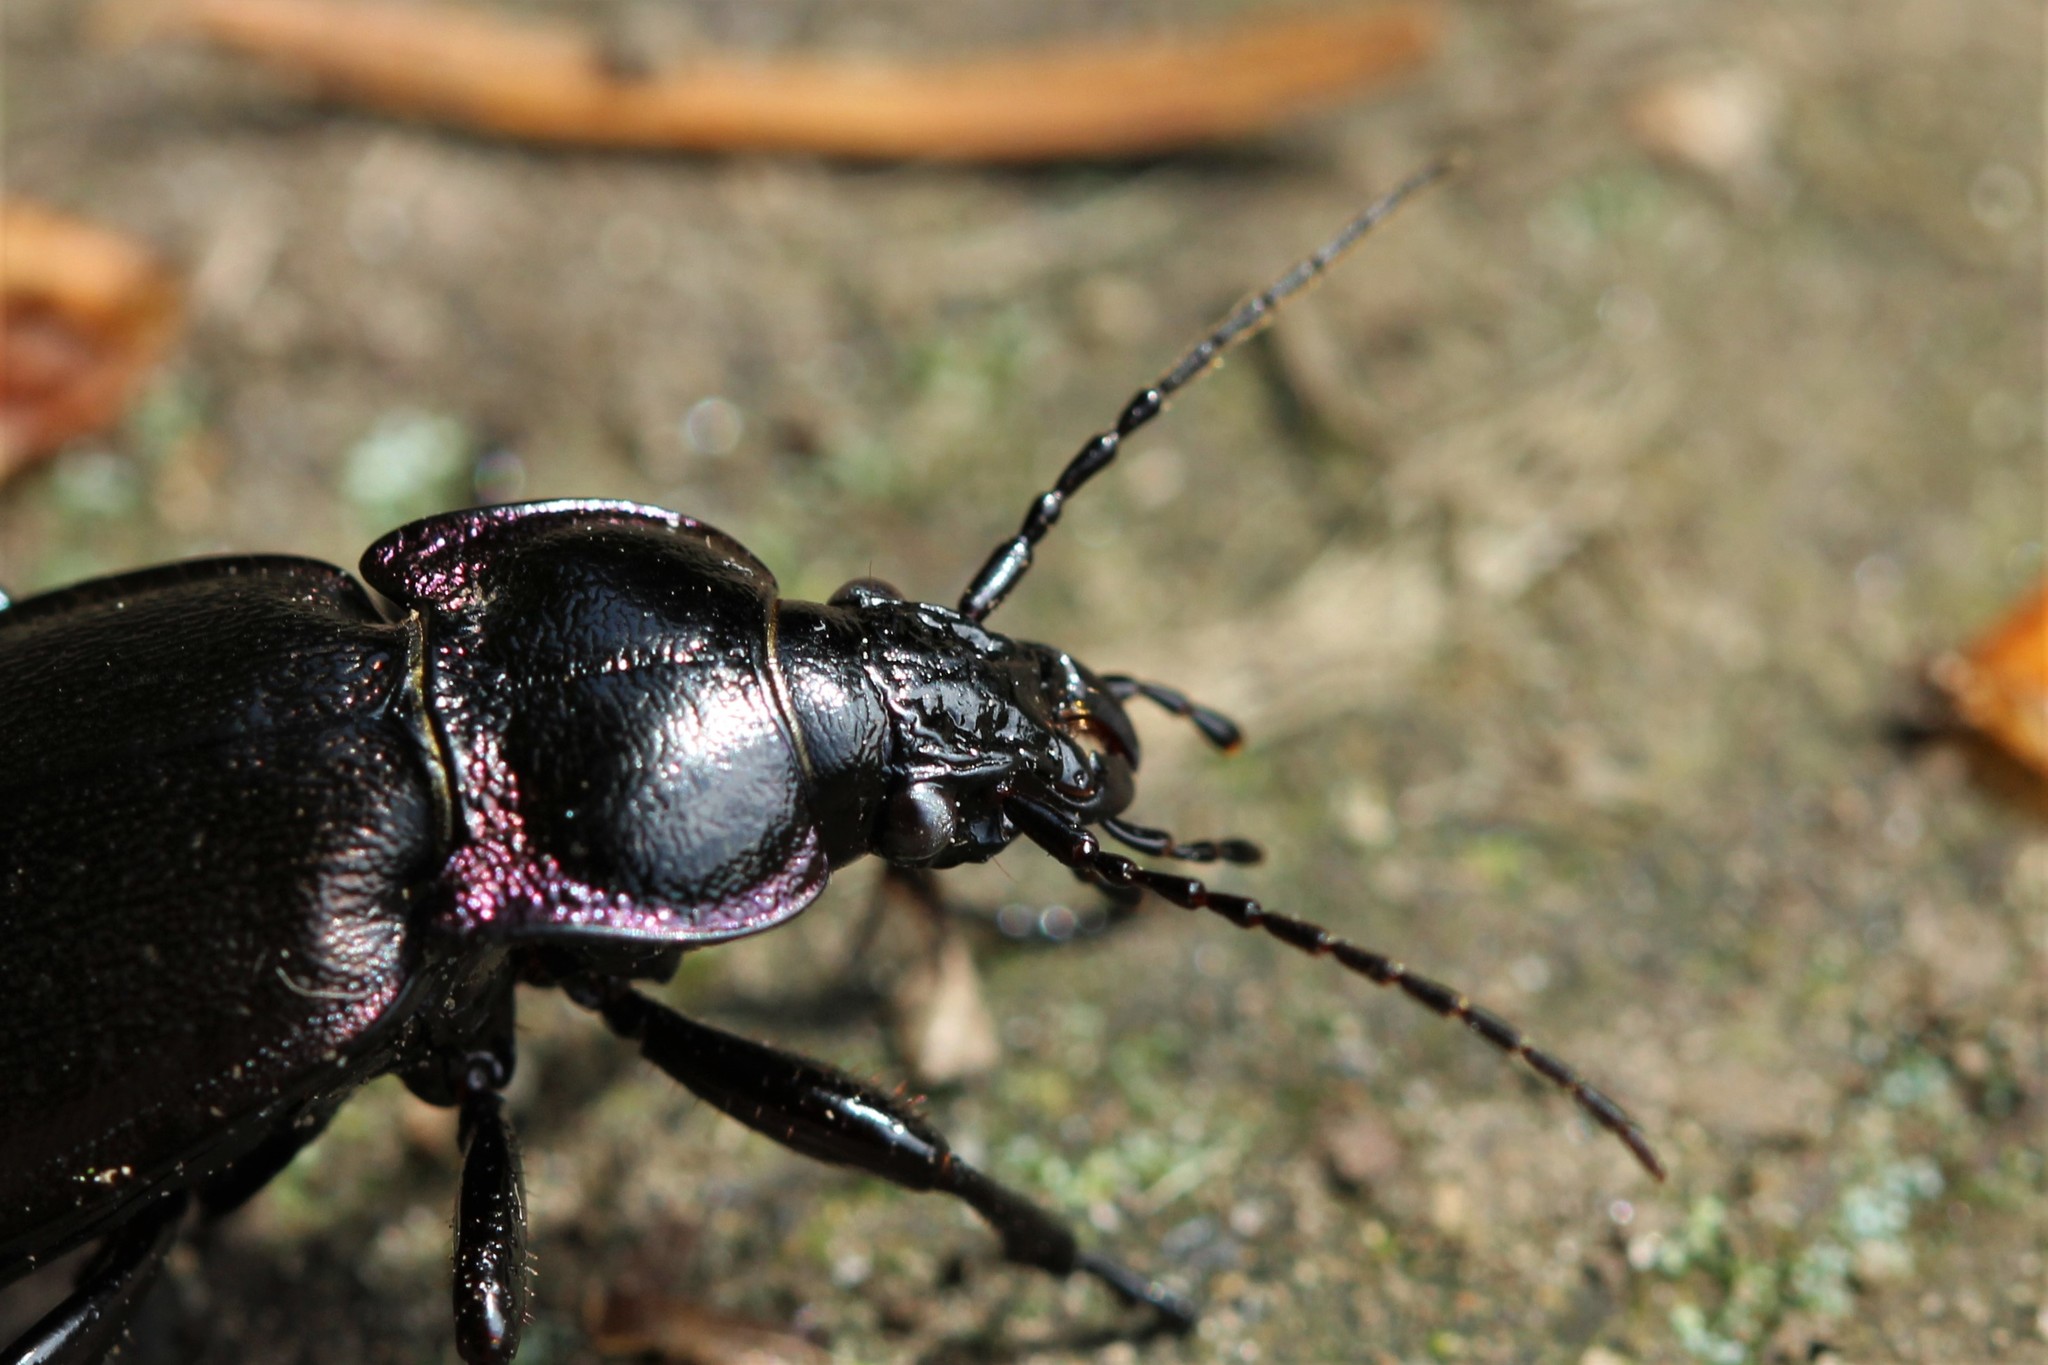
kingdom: Animalia
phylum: Arthropoda
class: Insecta
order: Coleoptera
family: Carabidae
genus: Carabus
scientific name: Carabus nemoralis
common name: European ground beetle
